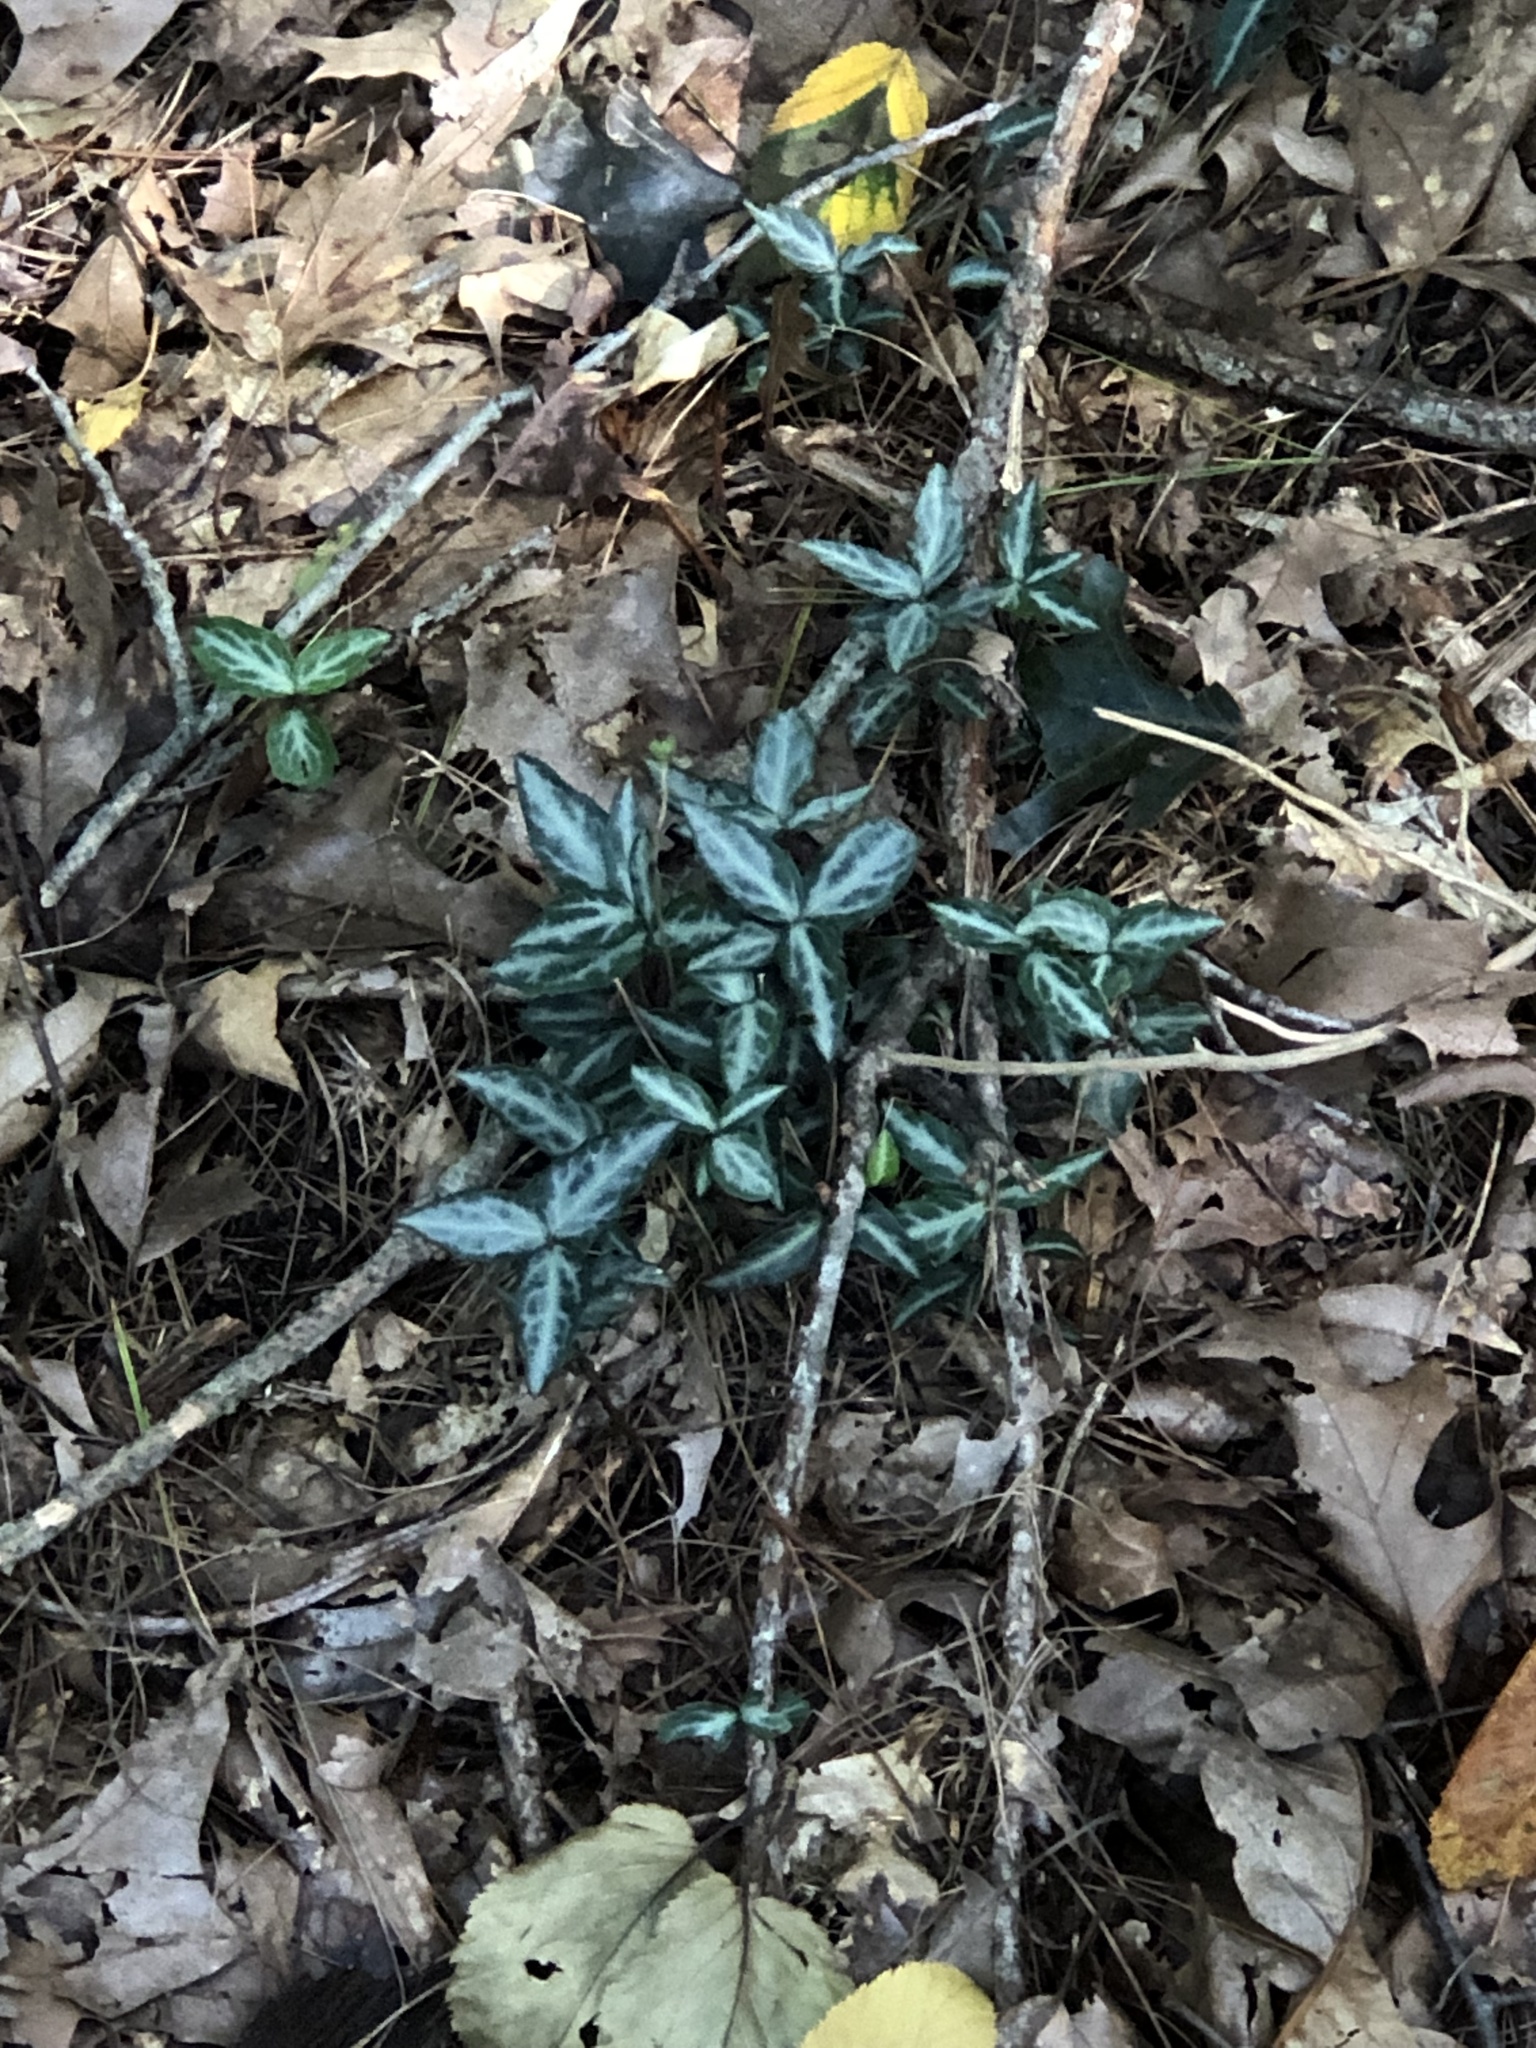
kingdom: Plantae
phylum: Tracheophyta
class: Magnoliopsida
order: Ericales
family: Ericaceae
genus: Chimaphila
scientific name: Chimaphila maculata
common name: Spotted pipsissewa
